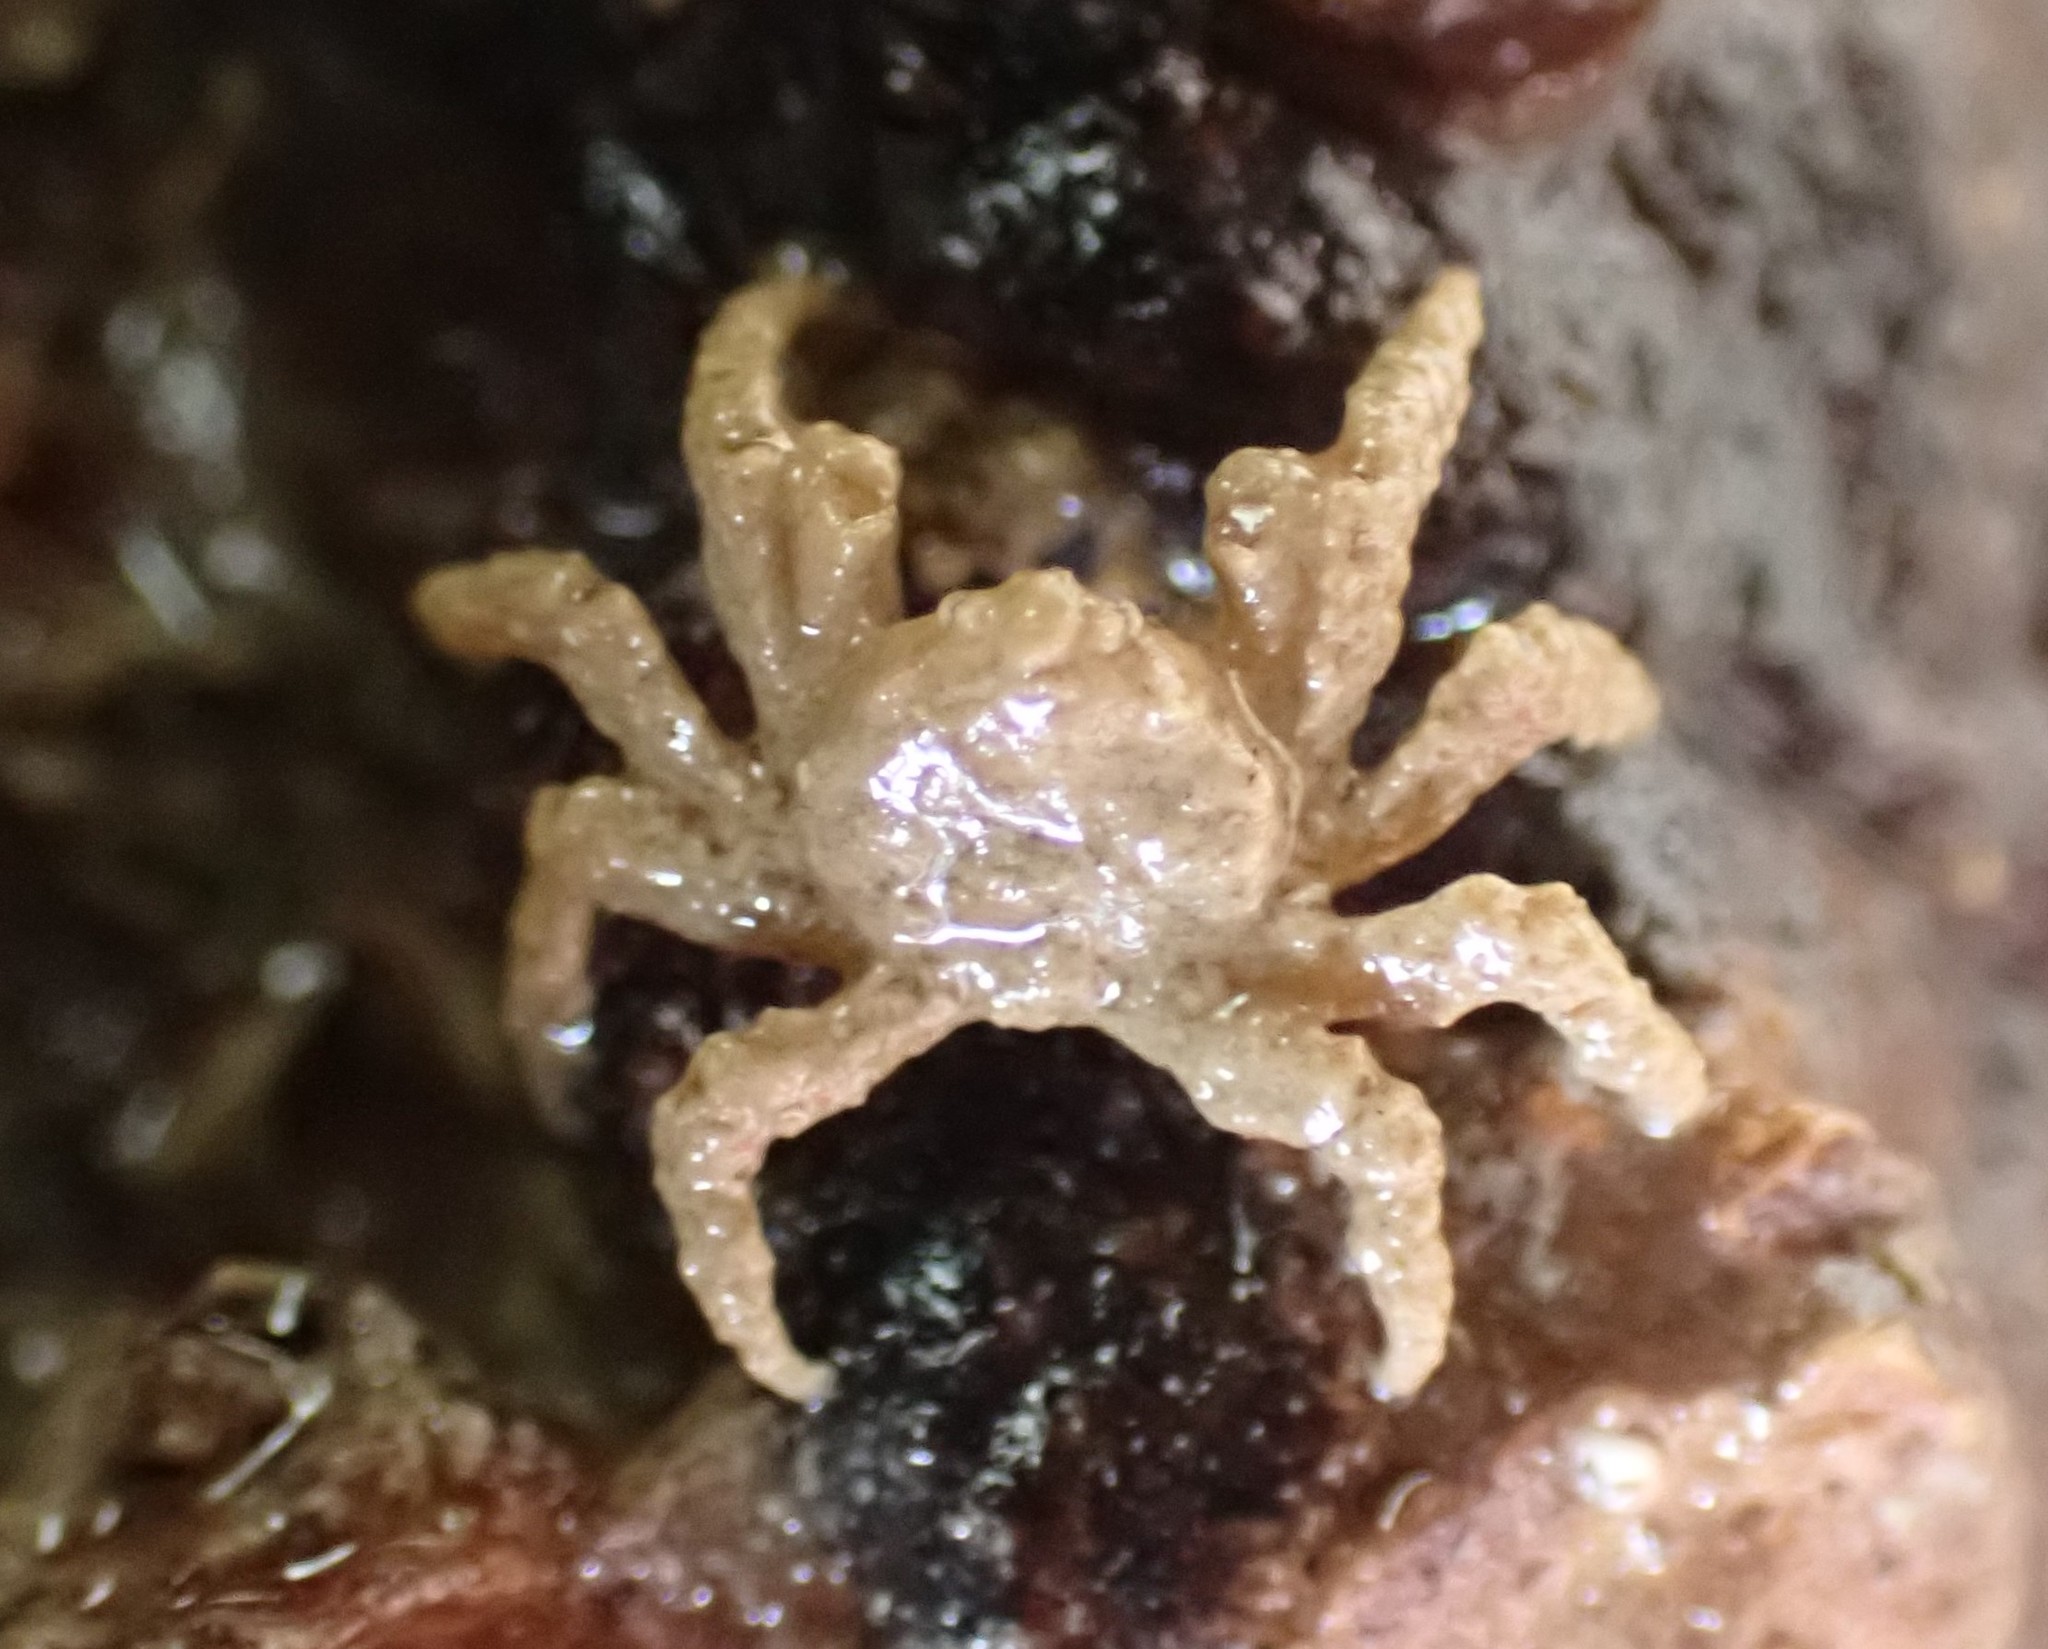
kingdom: Animalia
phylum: Arthropoda
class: Malacostraca
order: Decapoda
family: Hymenosomatidae
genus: Neohymenicus
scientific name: Neohymenicus pubescens
